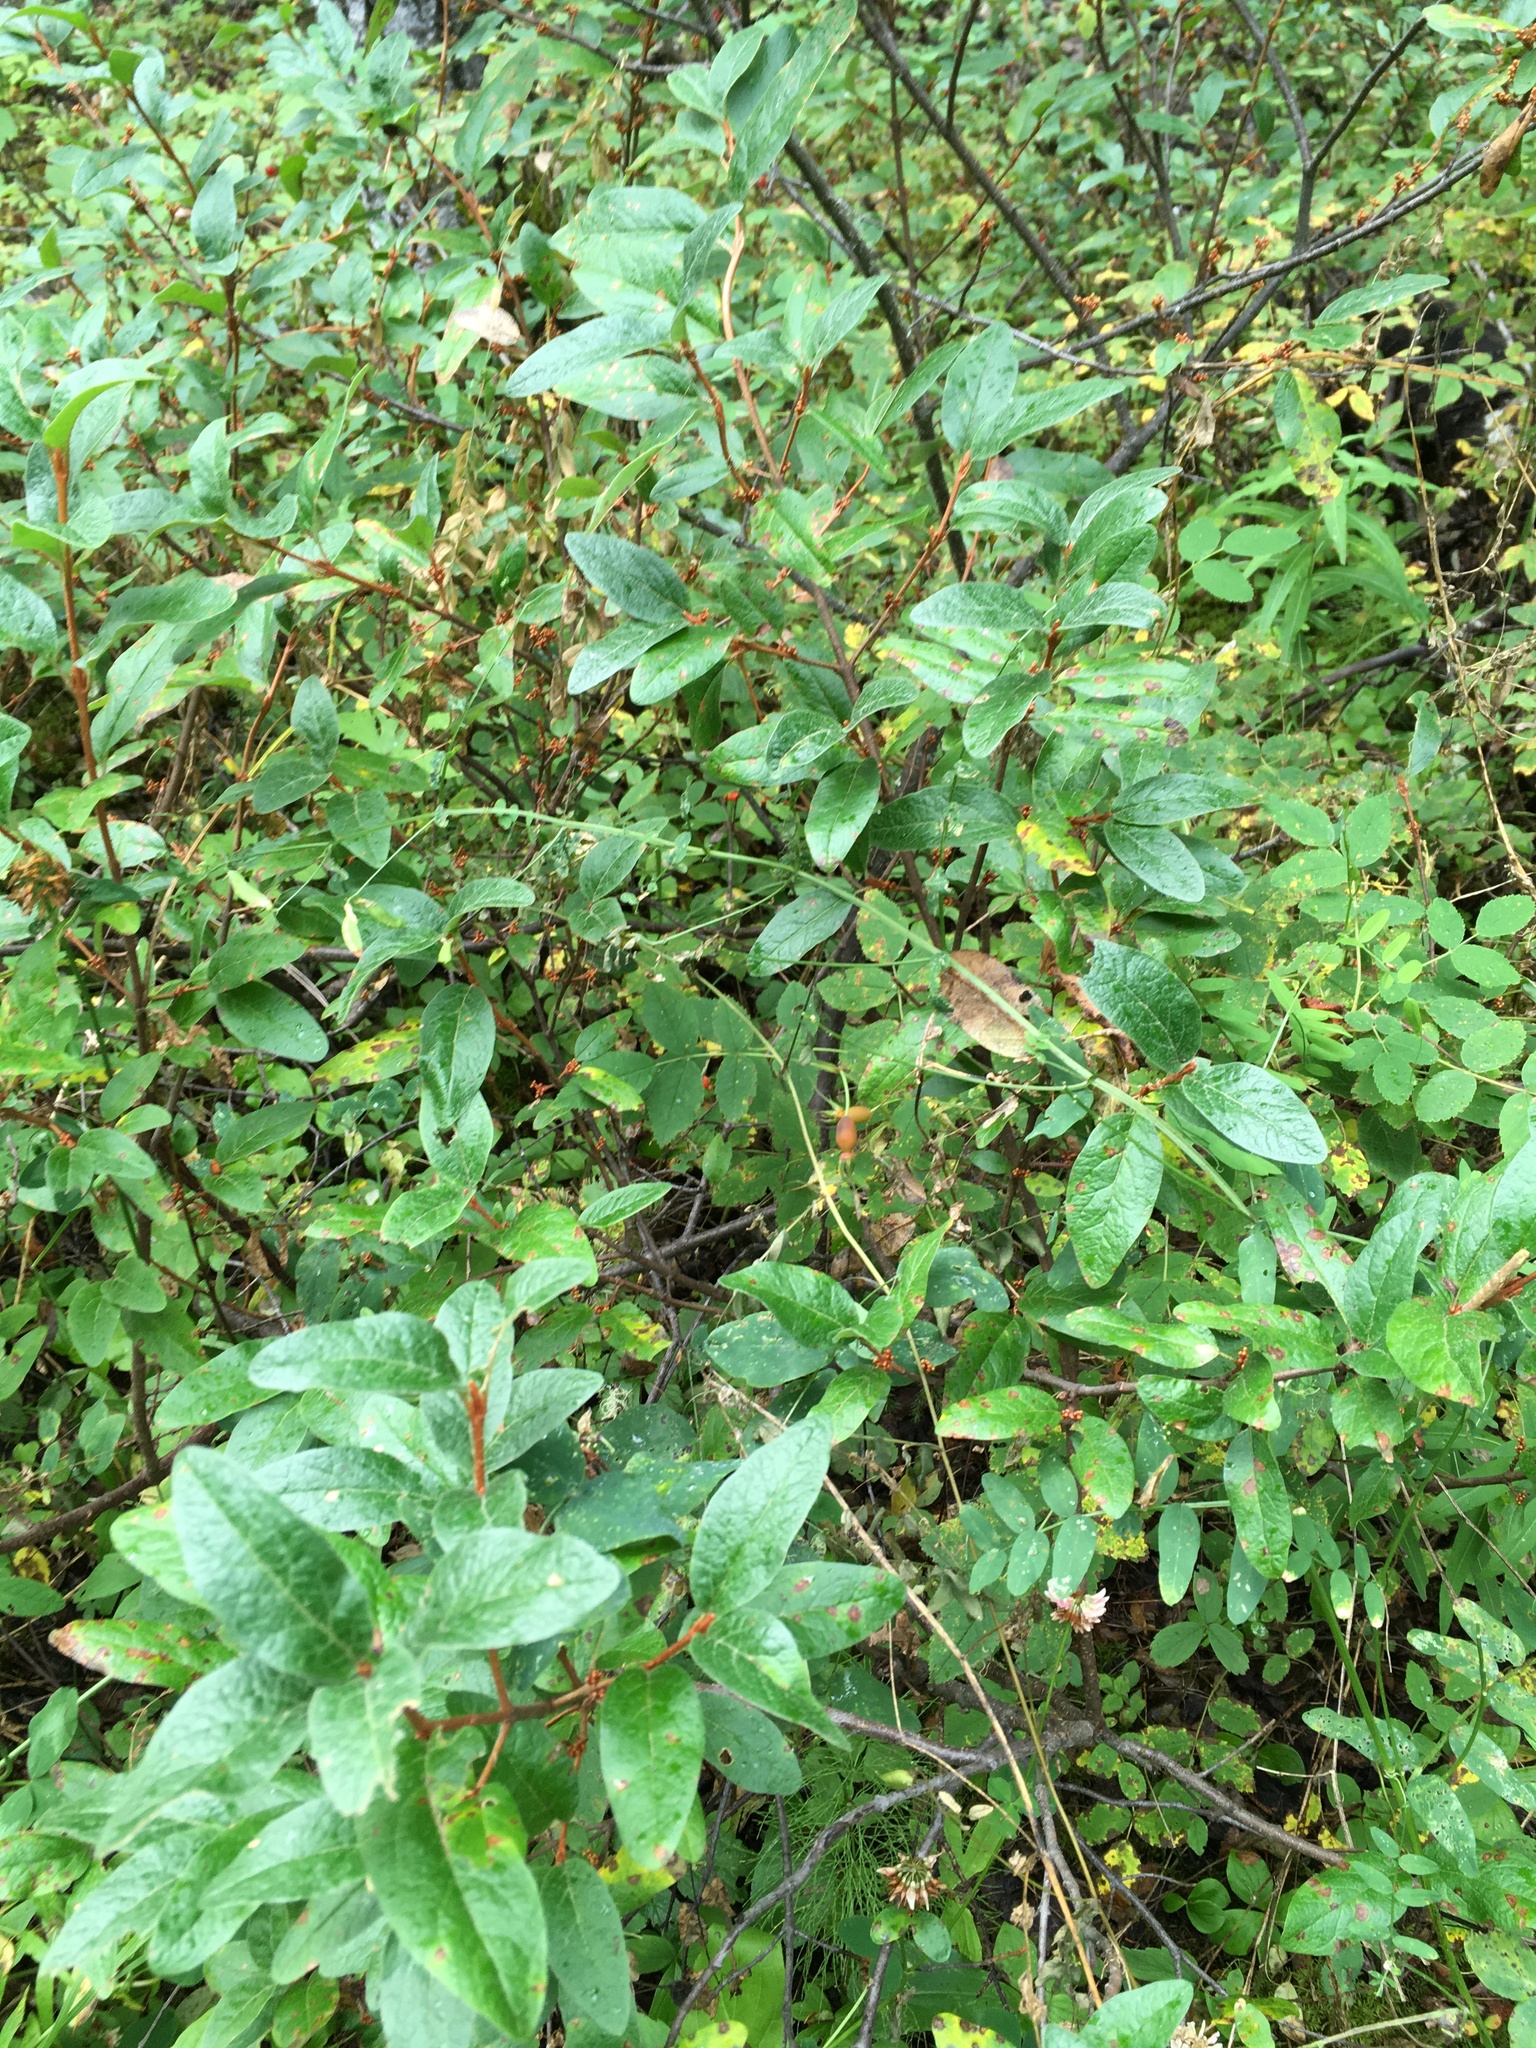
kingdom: Plantae
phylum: Tracheophyta
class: Magnoliopsida
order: Rosales
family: Elaeagnaceae
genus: Shepherdia
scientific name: Shepherdia canadensis
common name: Soapberry
